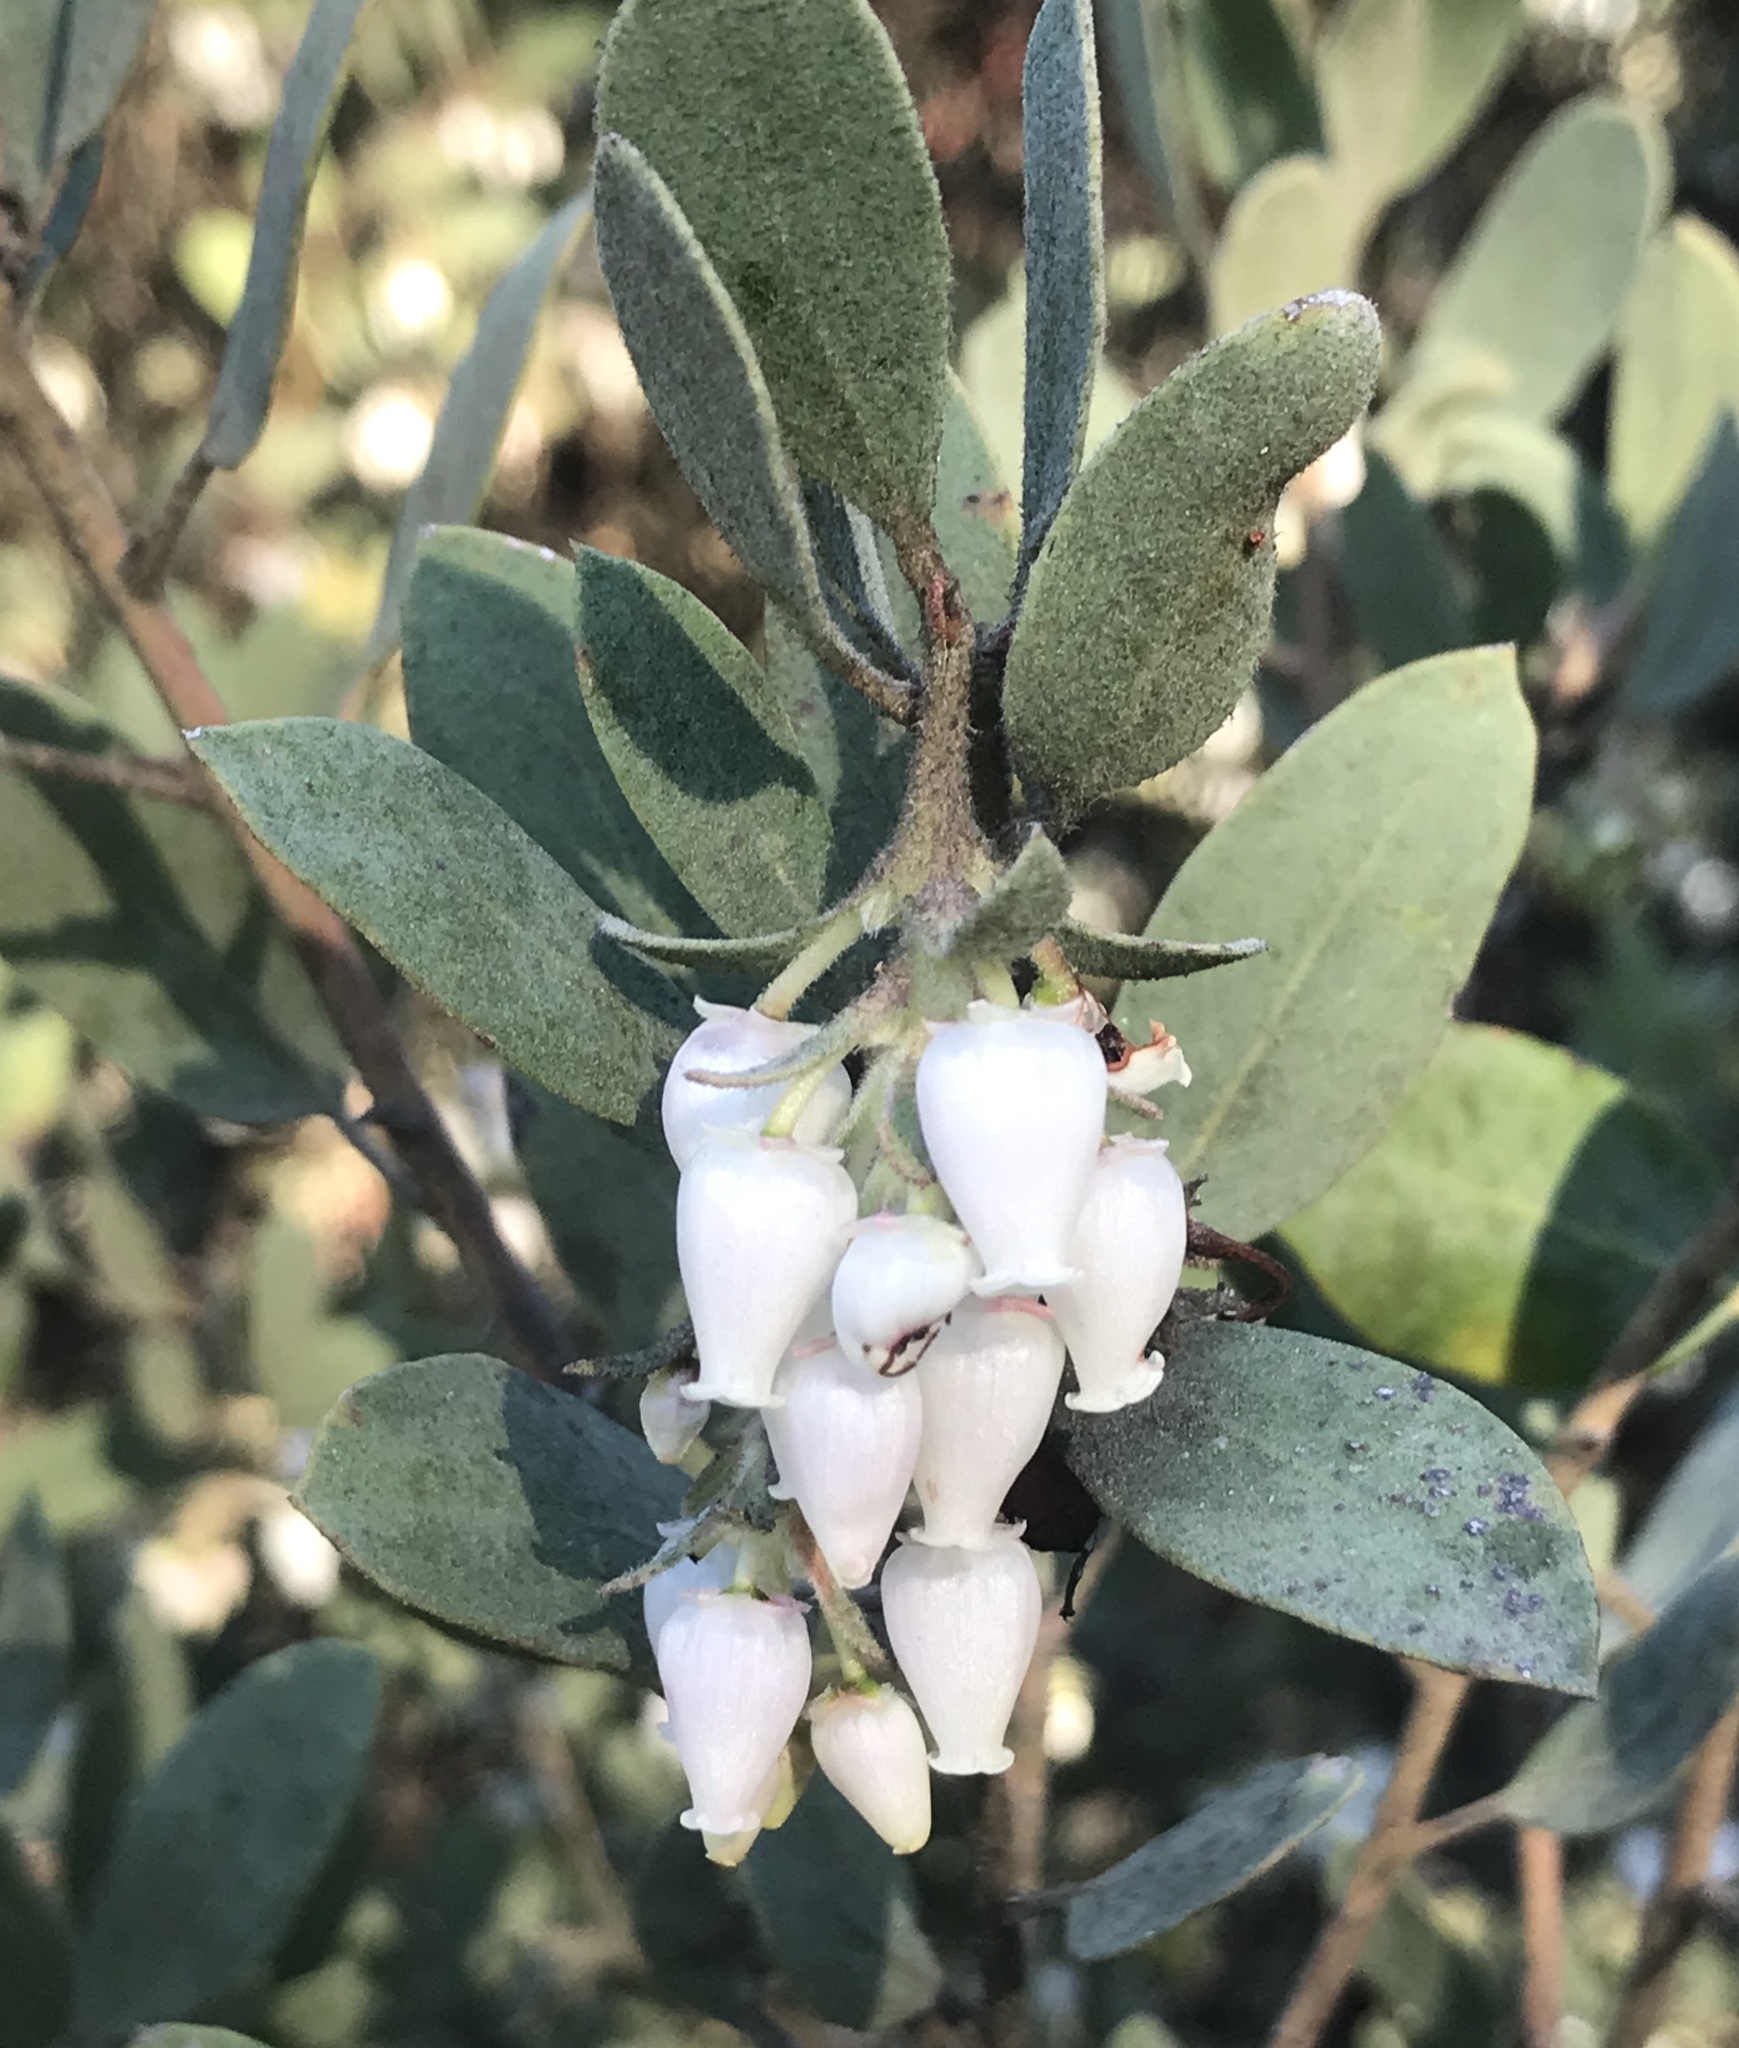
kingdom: Plantae
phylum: Tracheophyta
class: Magnoliopsida
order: Ericales
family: Ericaceae
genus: Arctostaphylos
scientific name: Arctostaphylos silvicola
